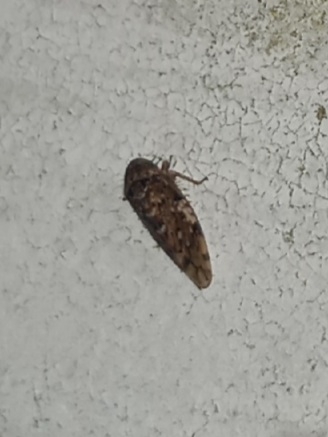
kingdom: Animalia
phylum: Arthropoda
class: Insecta
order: Hemiptera
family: Cicadellidae
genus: Xestocephalus
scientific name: Xestocephalus tessellatus
